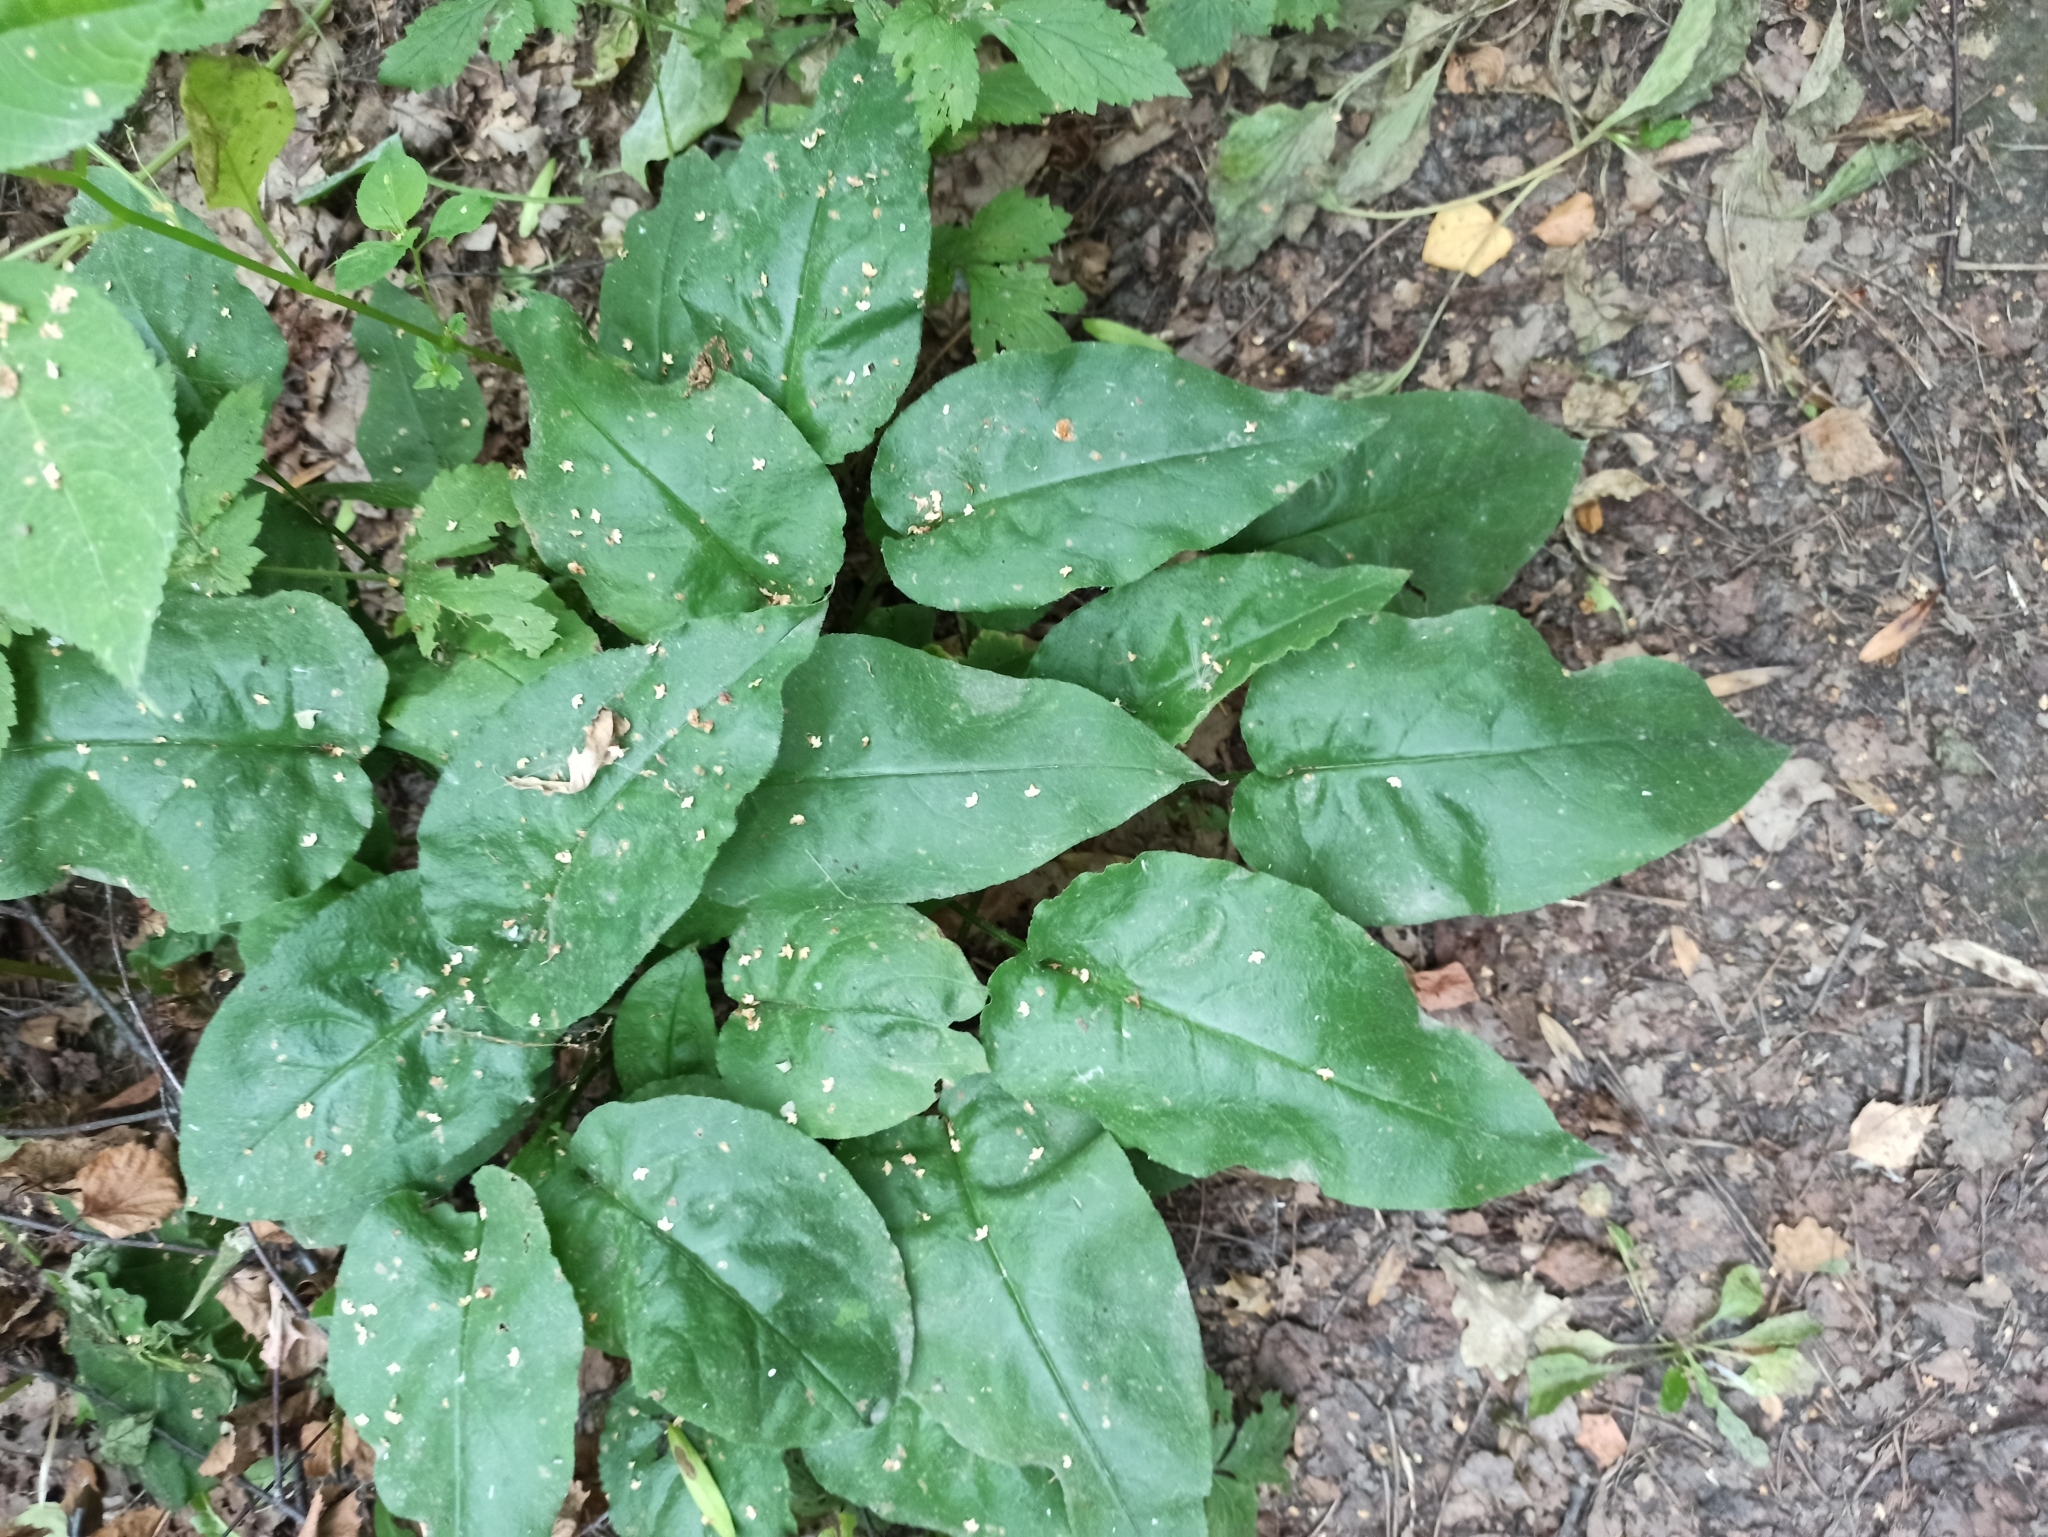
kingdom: Plantae
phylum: Tracheophyta
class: Magnoliopsida
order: Boraginales
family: Boraginaceae
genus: Pulmonaria
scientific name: Pulmonaria obscura
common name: Suffolk lungwort
